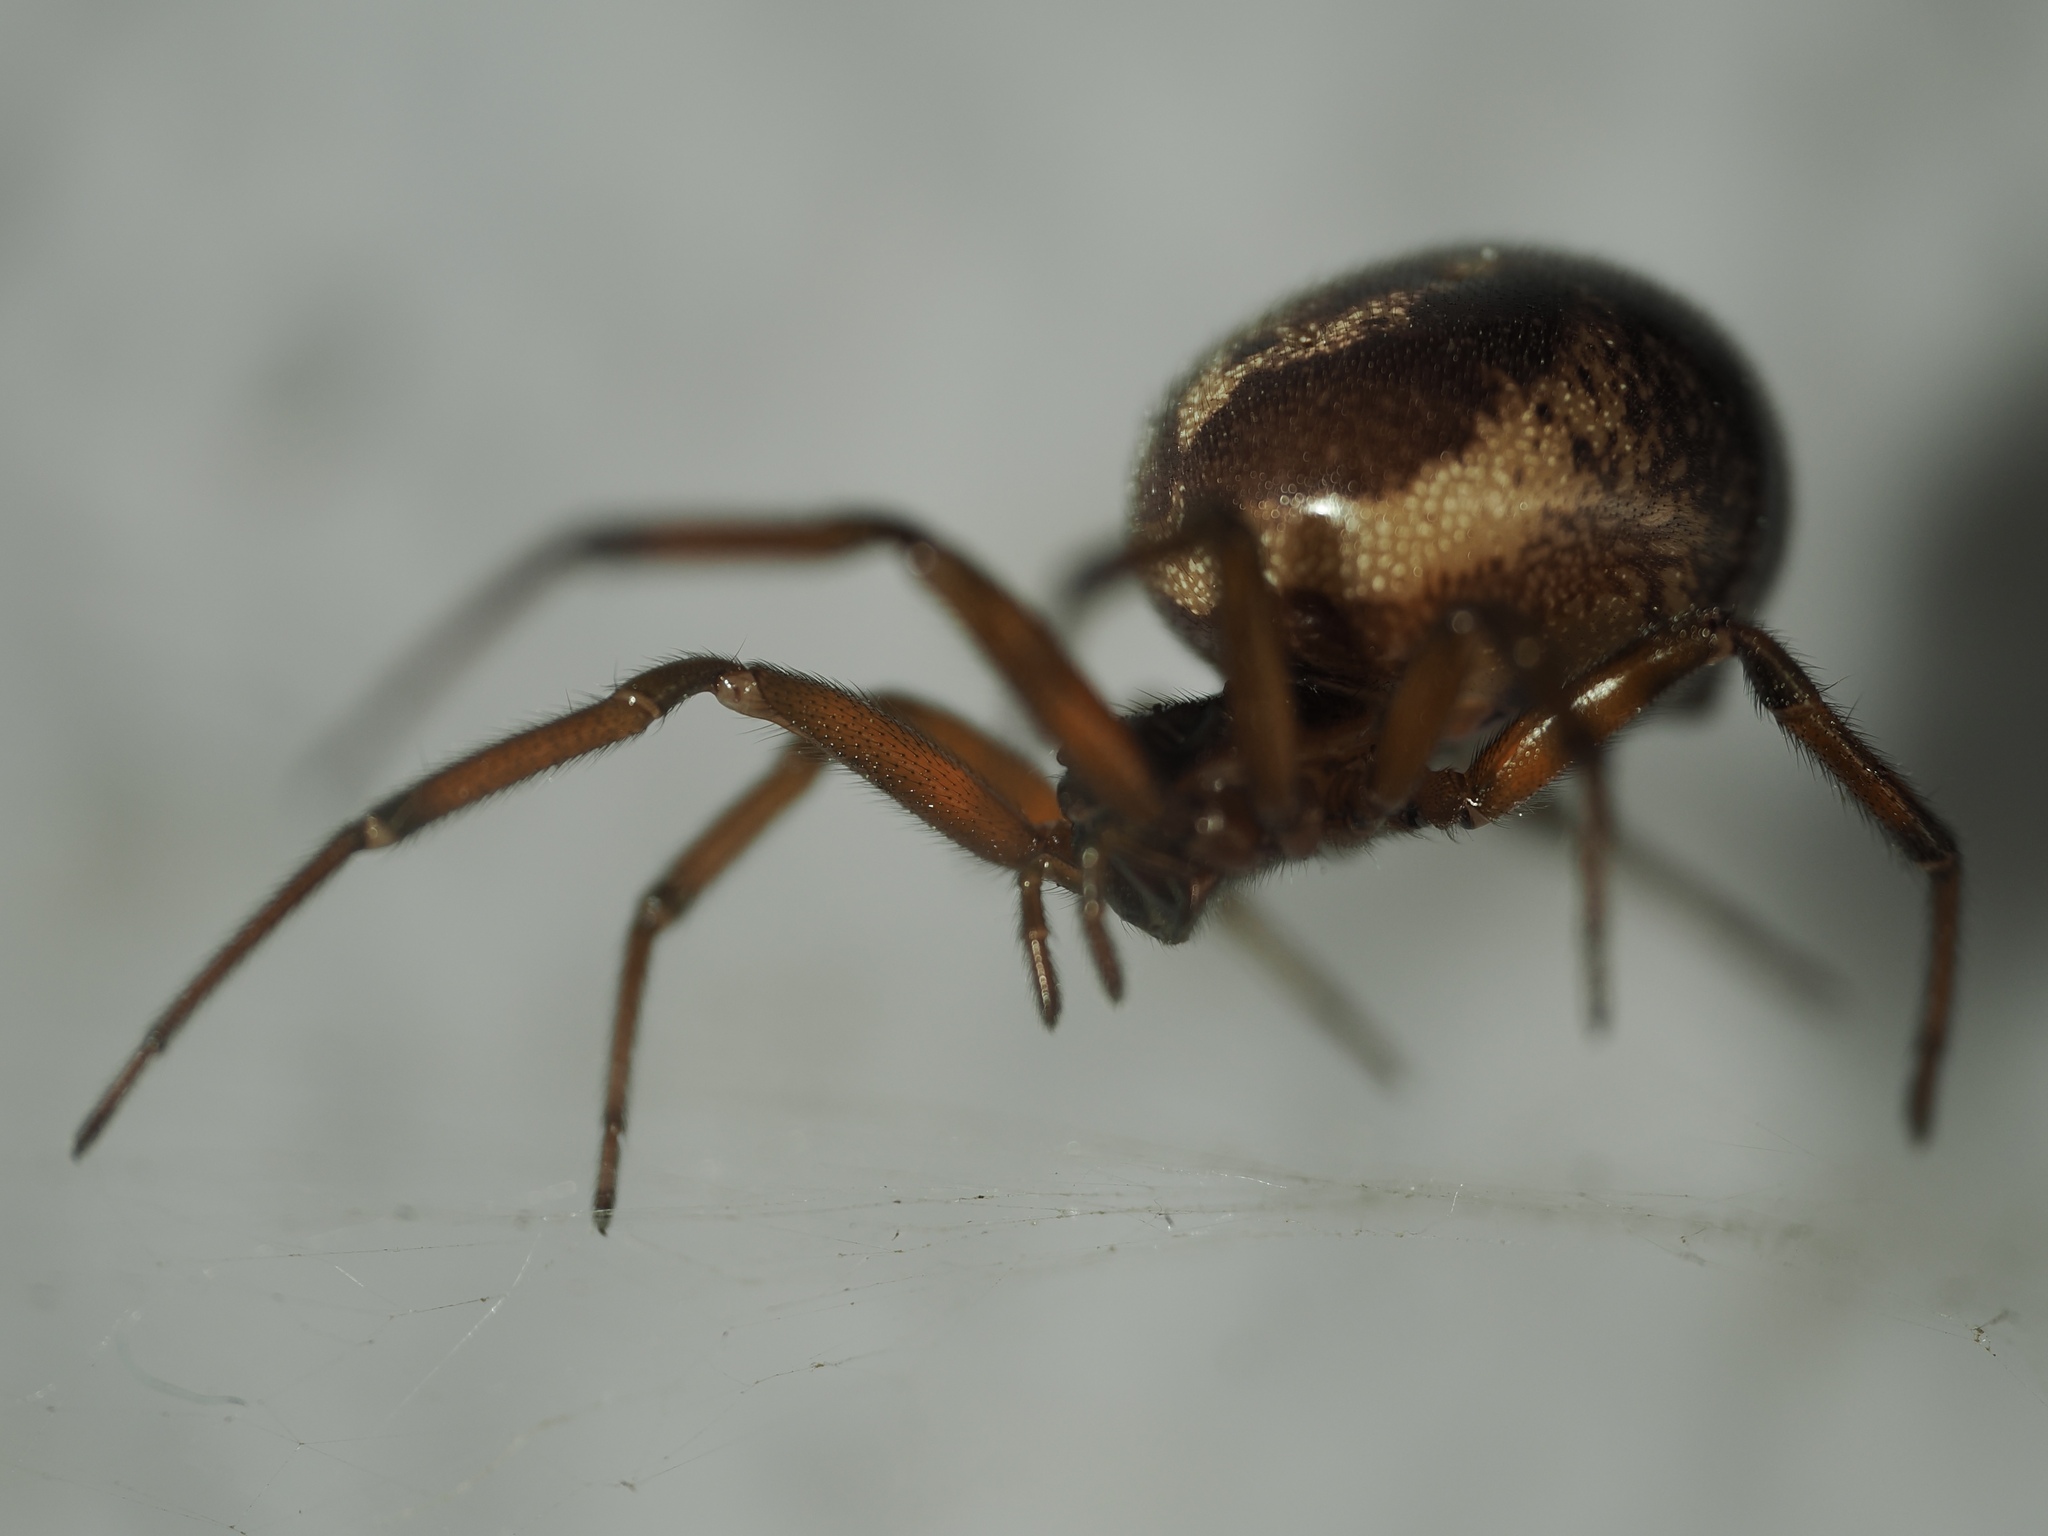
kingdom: Animalia
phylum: Arthropoda
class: Arachnida
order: Araneae
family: Theridiidae
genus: Steatoda
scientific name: Steatoda nobilis
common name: Cobweb weaver
